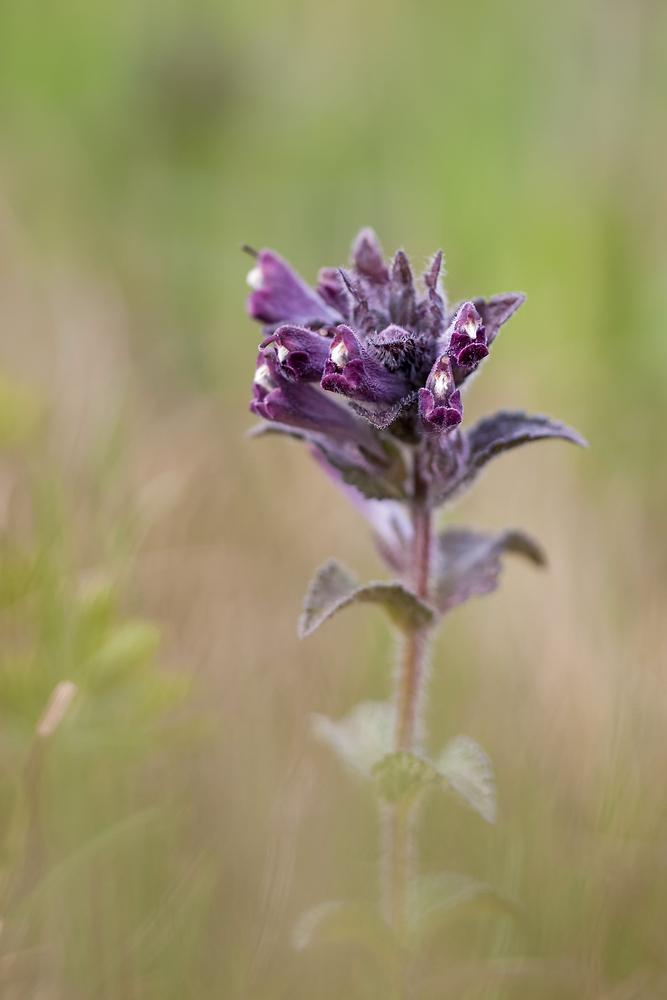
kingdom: Plantae
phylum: Tracheophyta
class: Magnoliopsida
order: Lamiales
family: Orobanchaceae
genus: Bartsia
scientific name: Bartsia alpina
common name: Alpine bartsia
